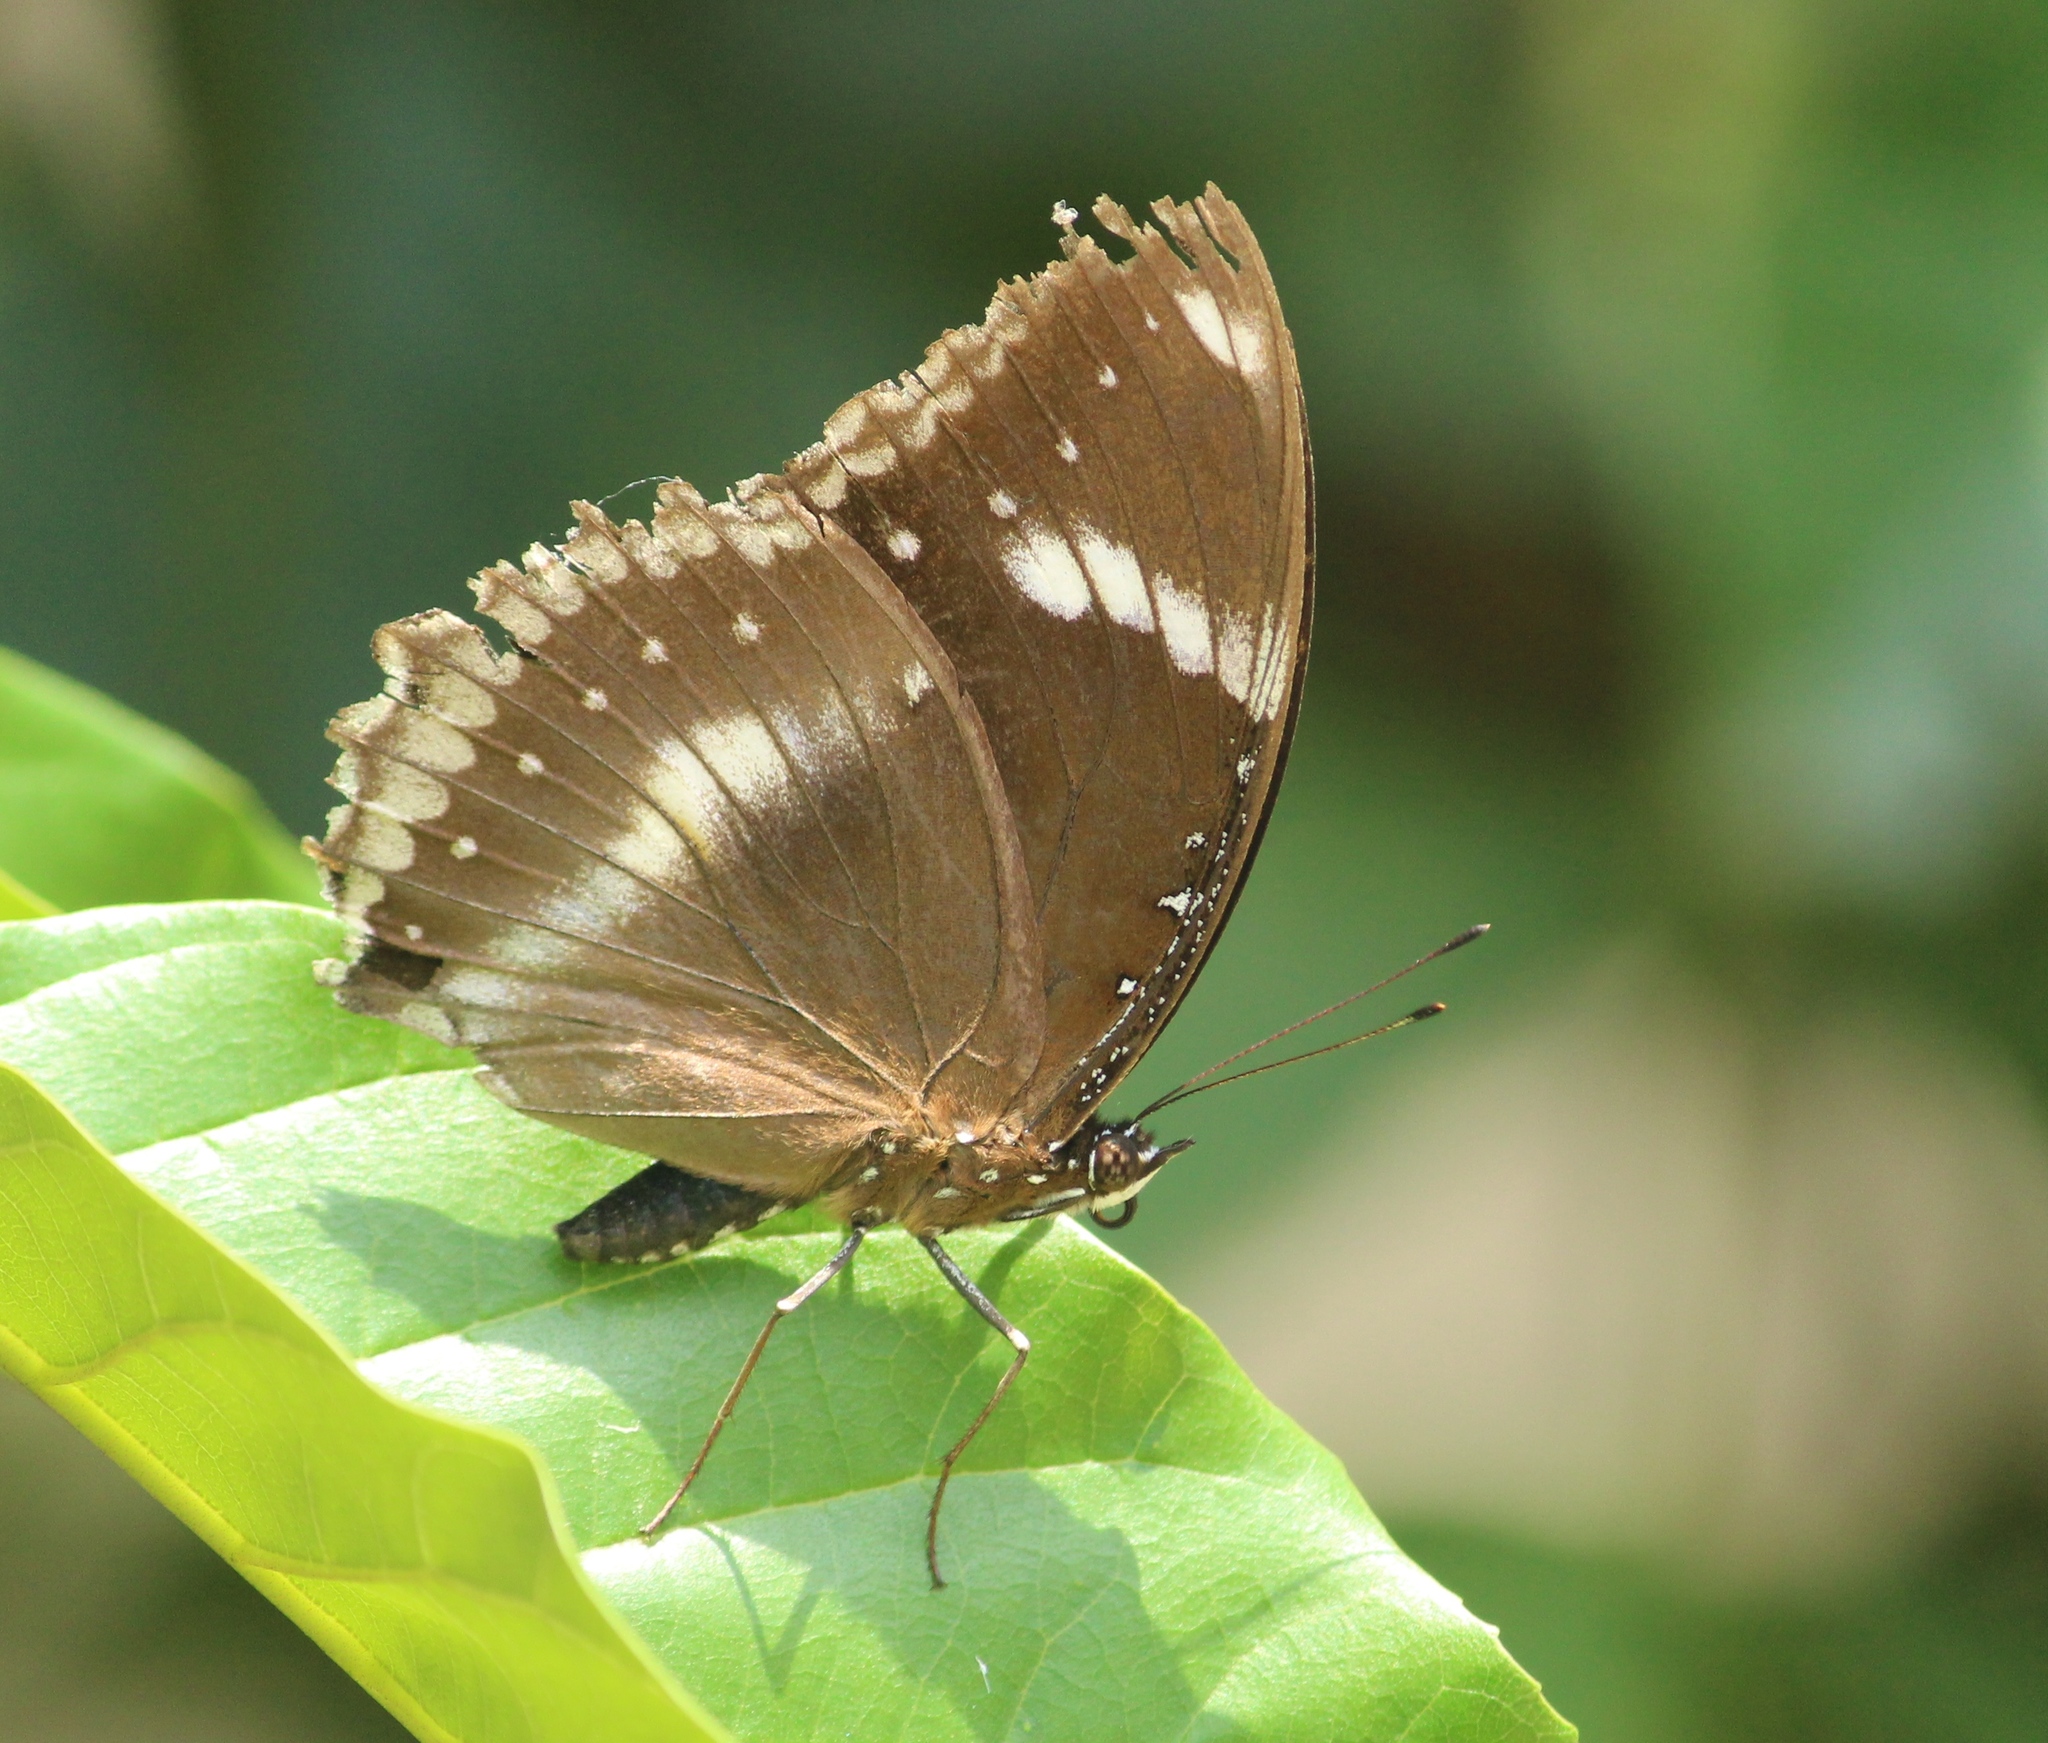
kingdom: Animalia
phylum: Arthropoda
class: Insecta
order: Lepidoptera
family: Nymphalidae
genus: Hypolimnas
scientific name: Hypolimnas bolina
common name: Great eggfly
